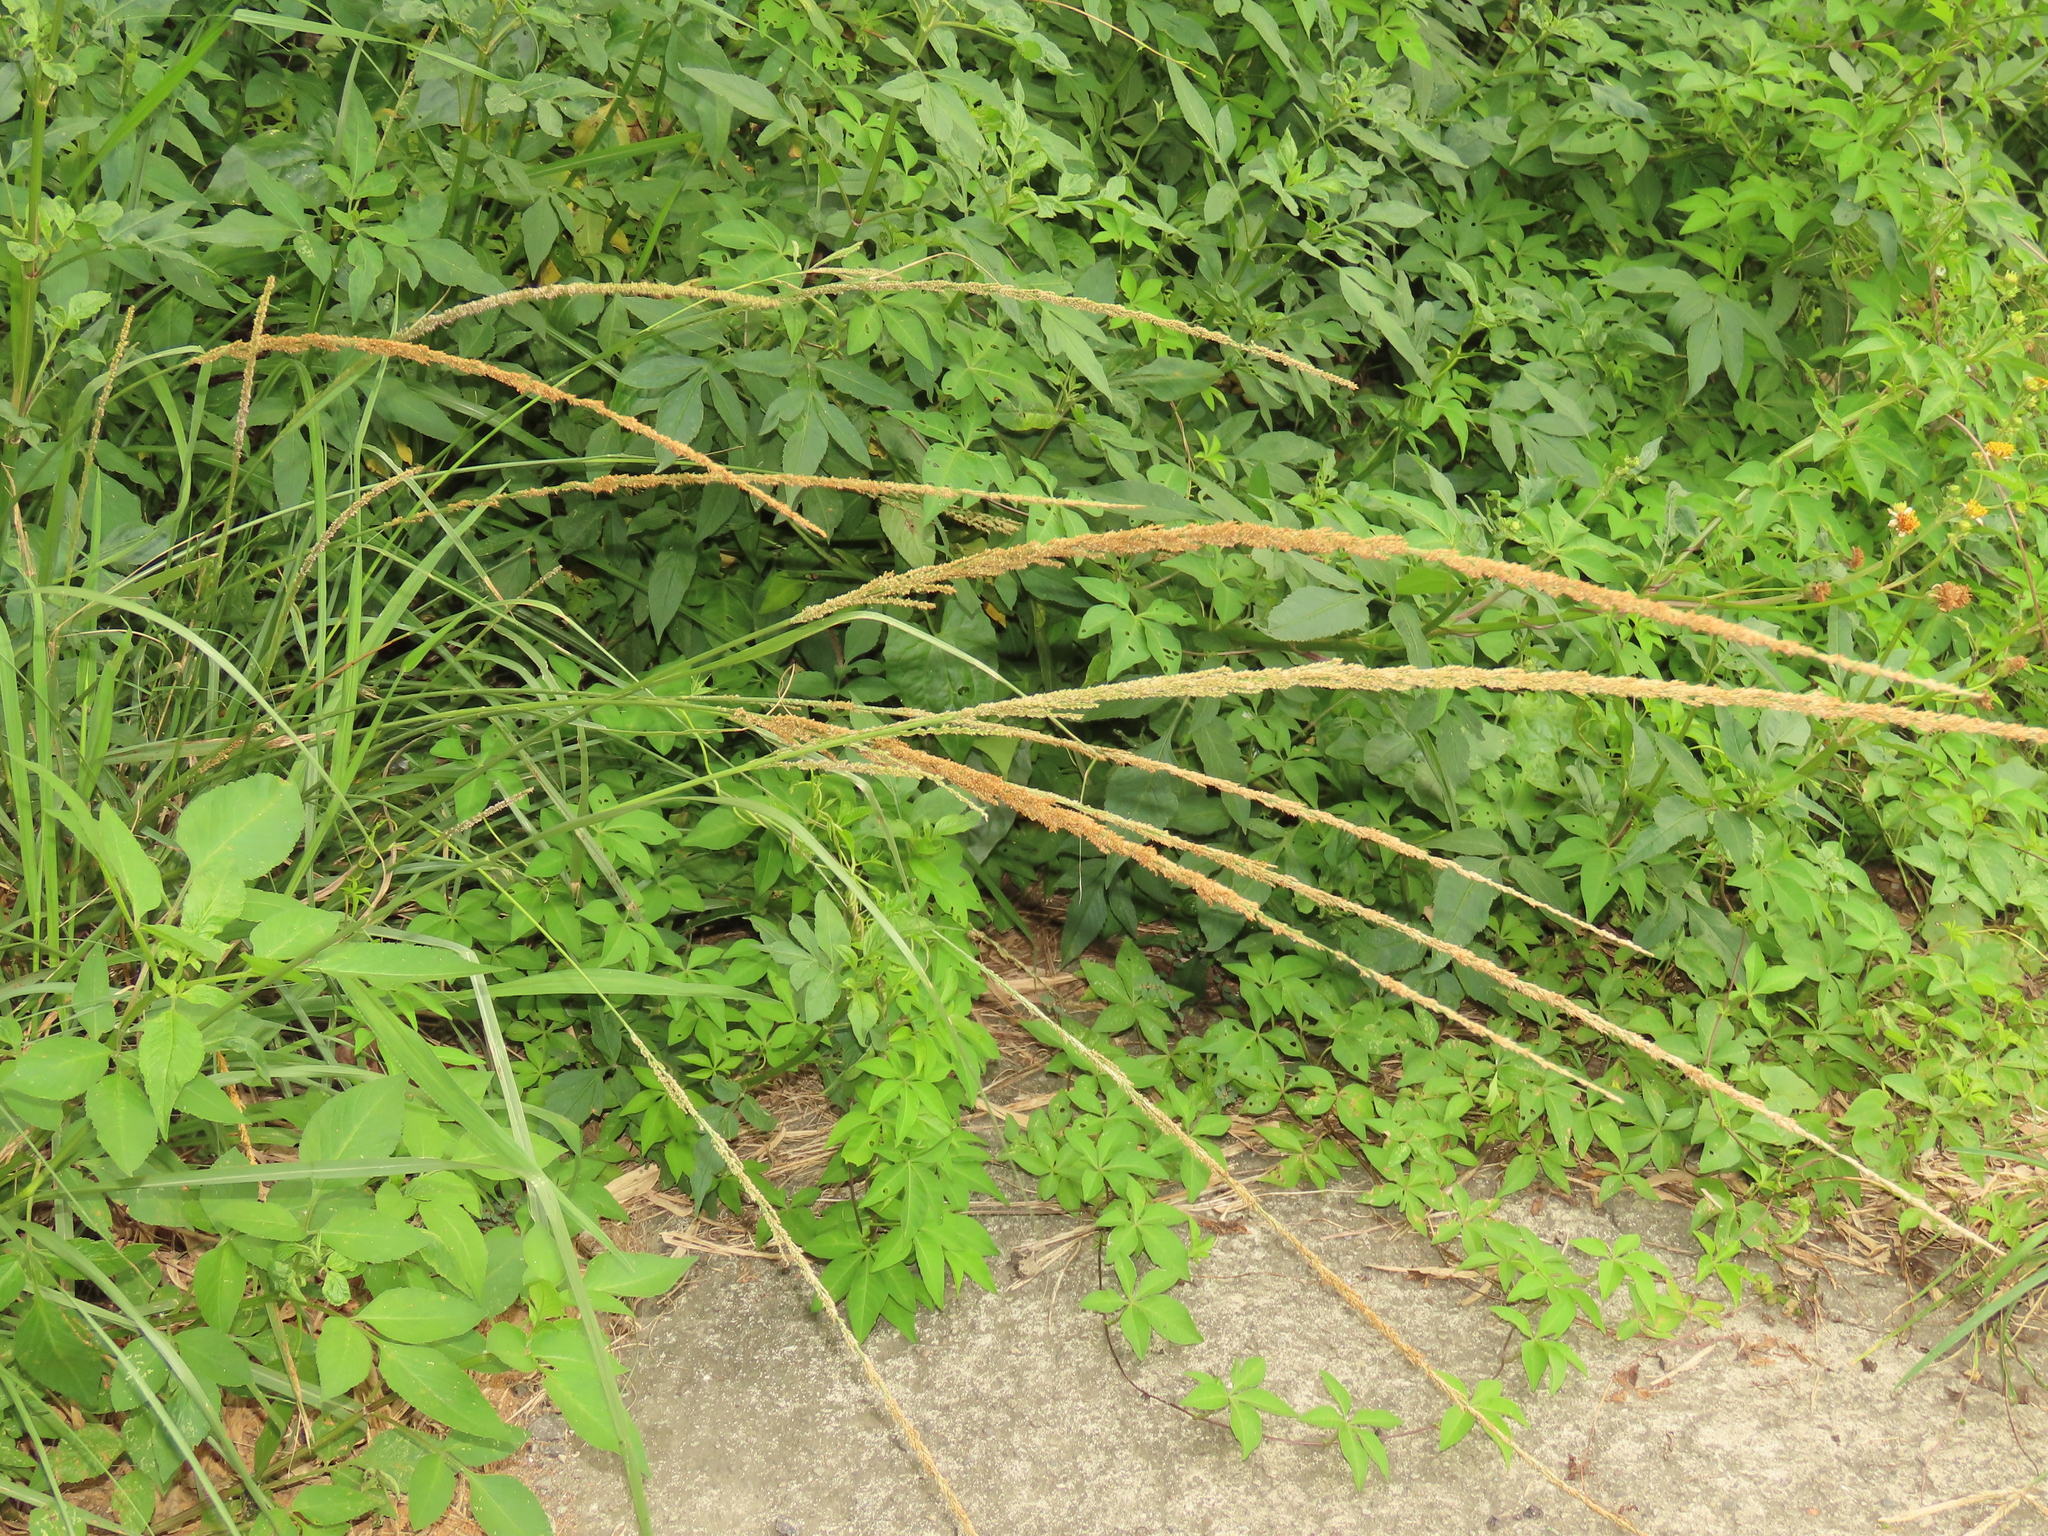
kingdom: Plantae
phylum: Tracheophyta
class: Liliopsida
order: Poales
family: Poaceae
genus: Sporobolus
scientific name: Sporobolus indicus
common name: Smut grass
